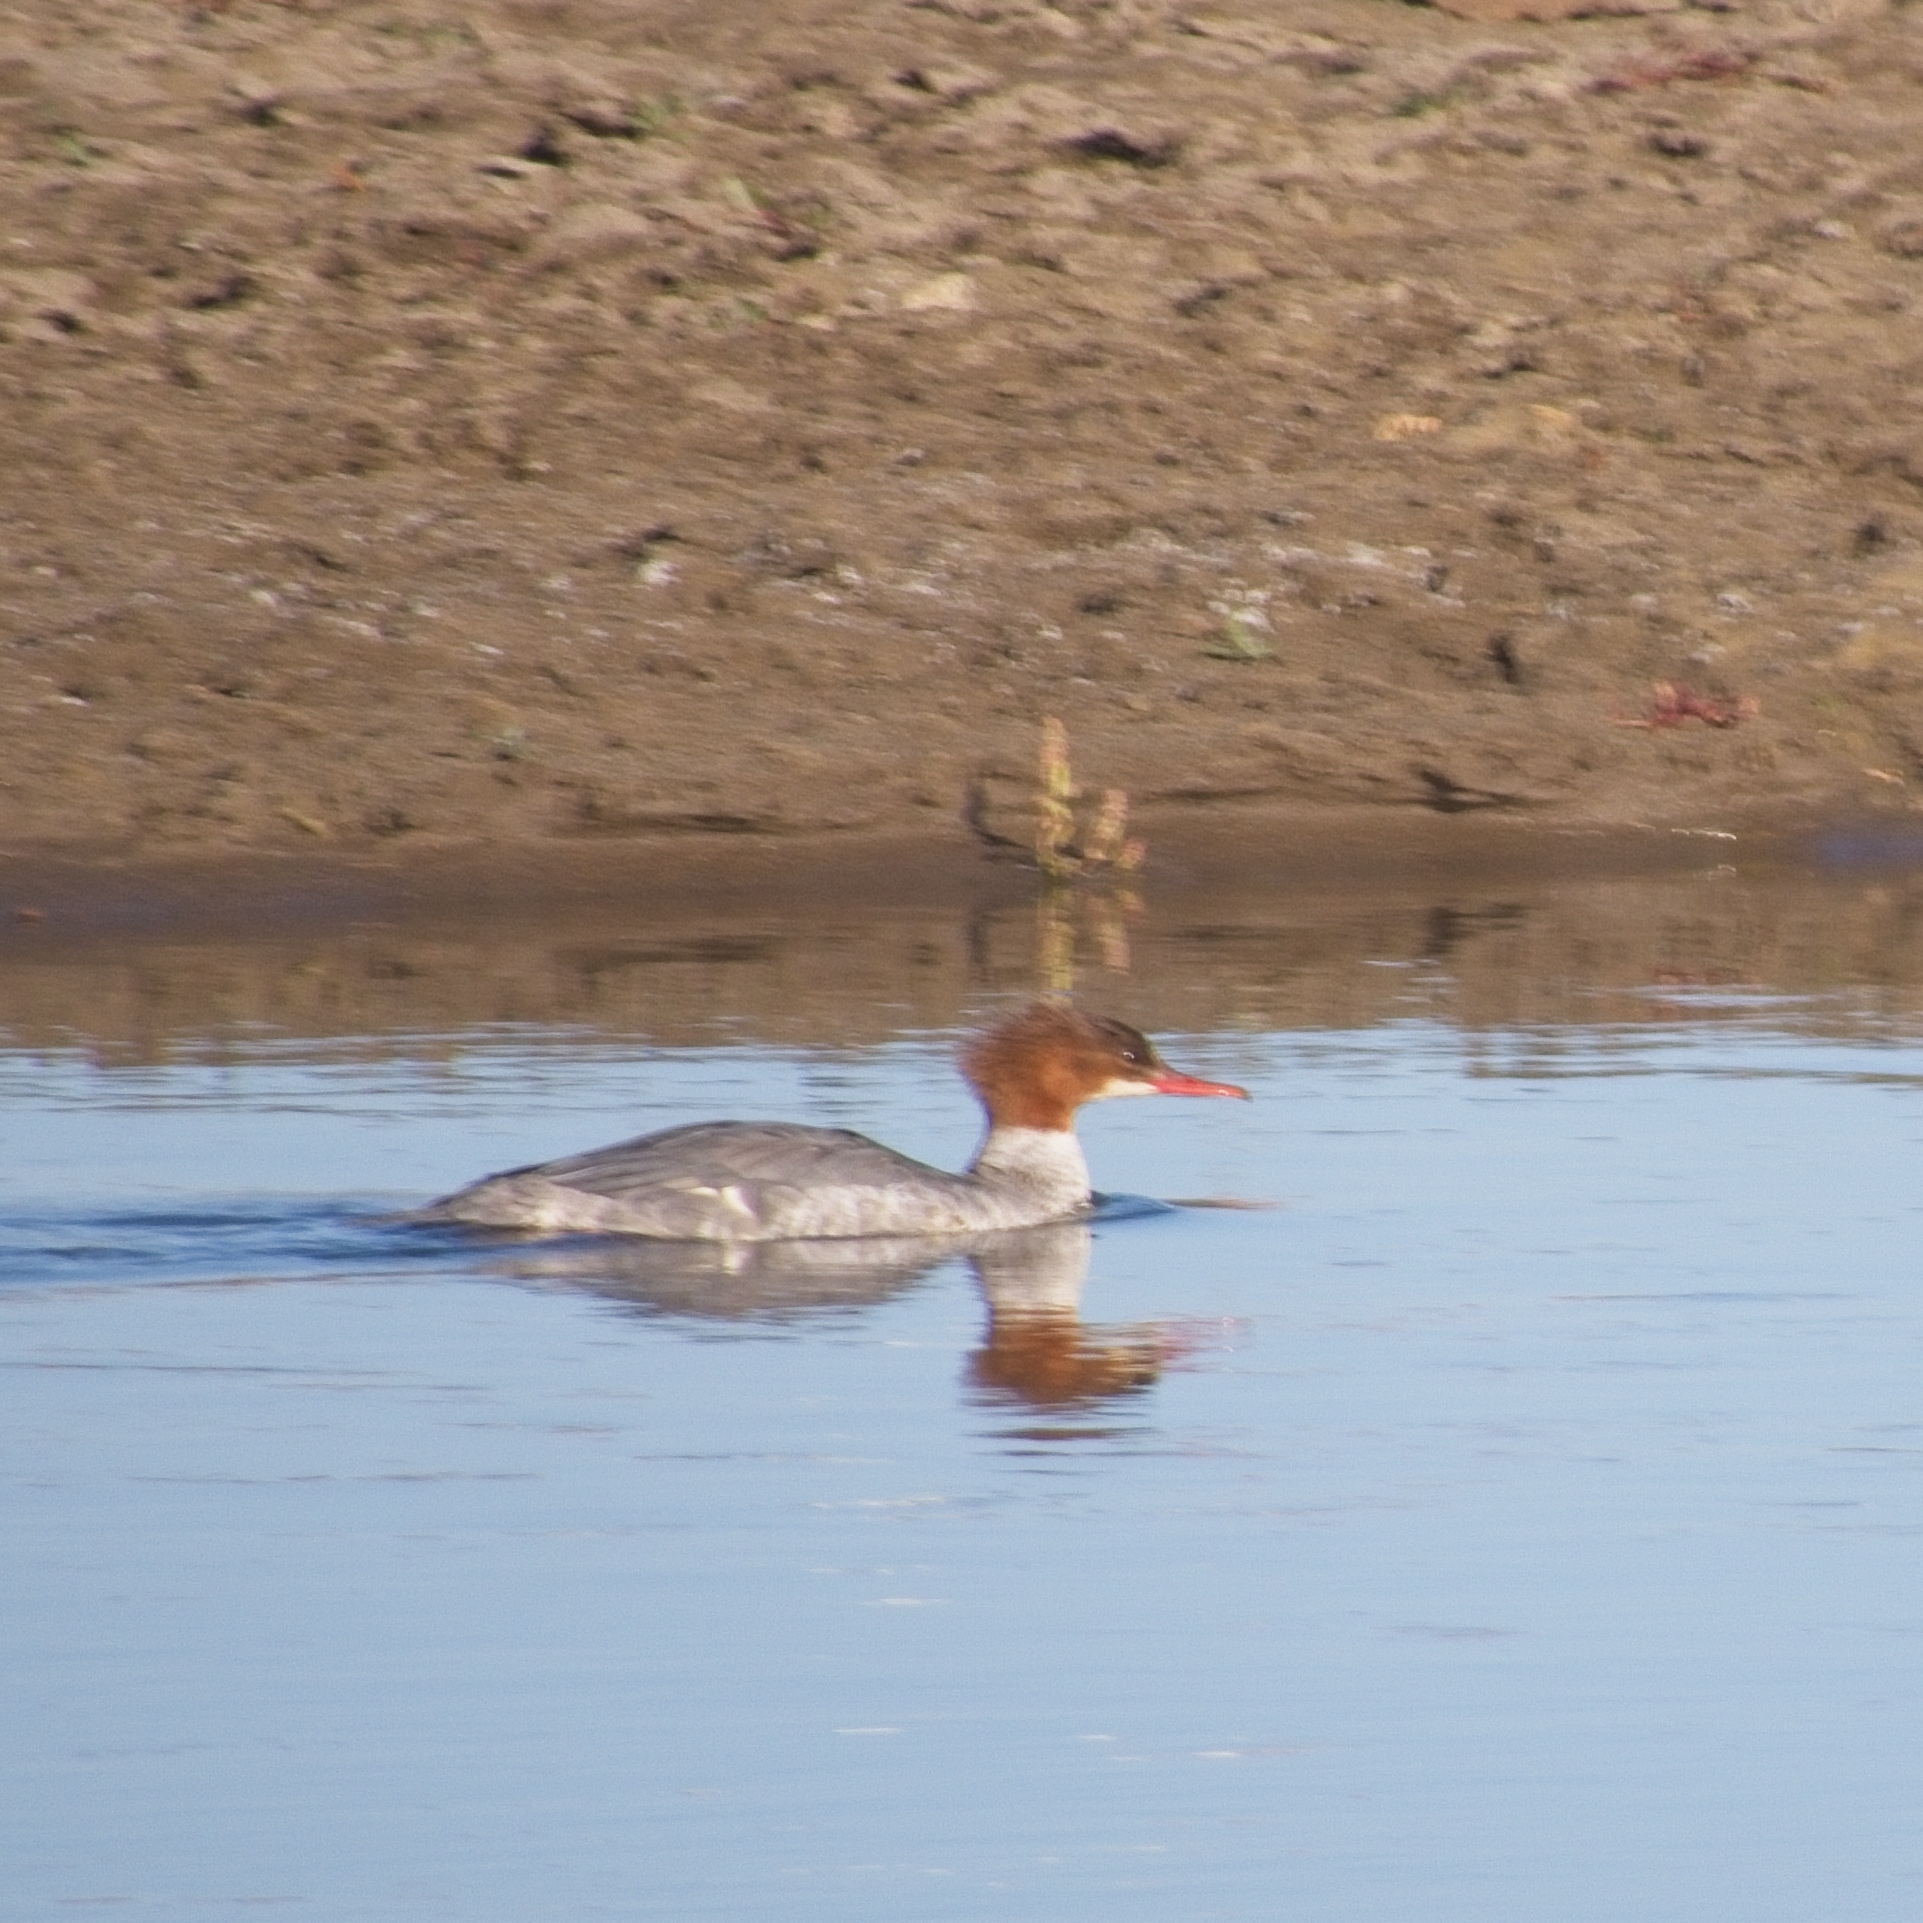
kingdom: Animalia
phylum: Chordata
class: Aves
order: Anseriformes
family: Anatidae
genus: Mergus
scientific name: Mergus merganser
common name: Common merganser
